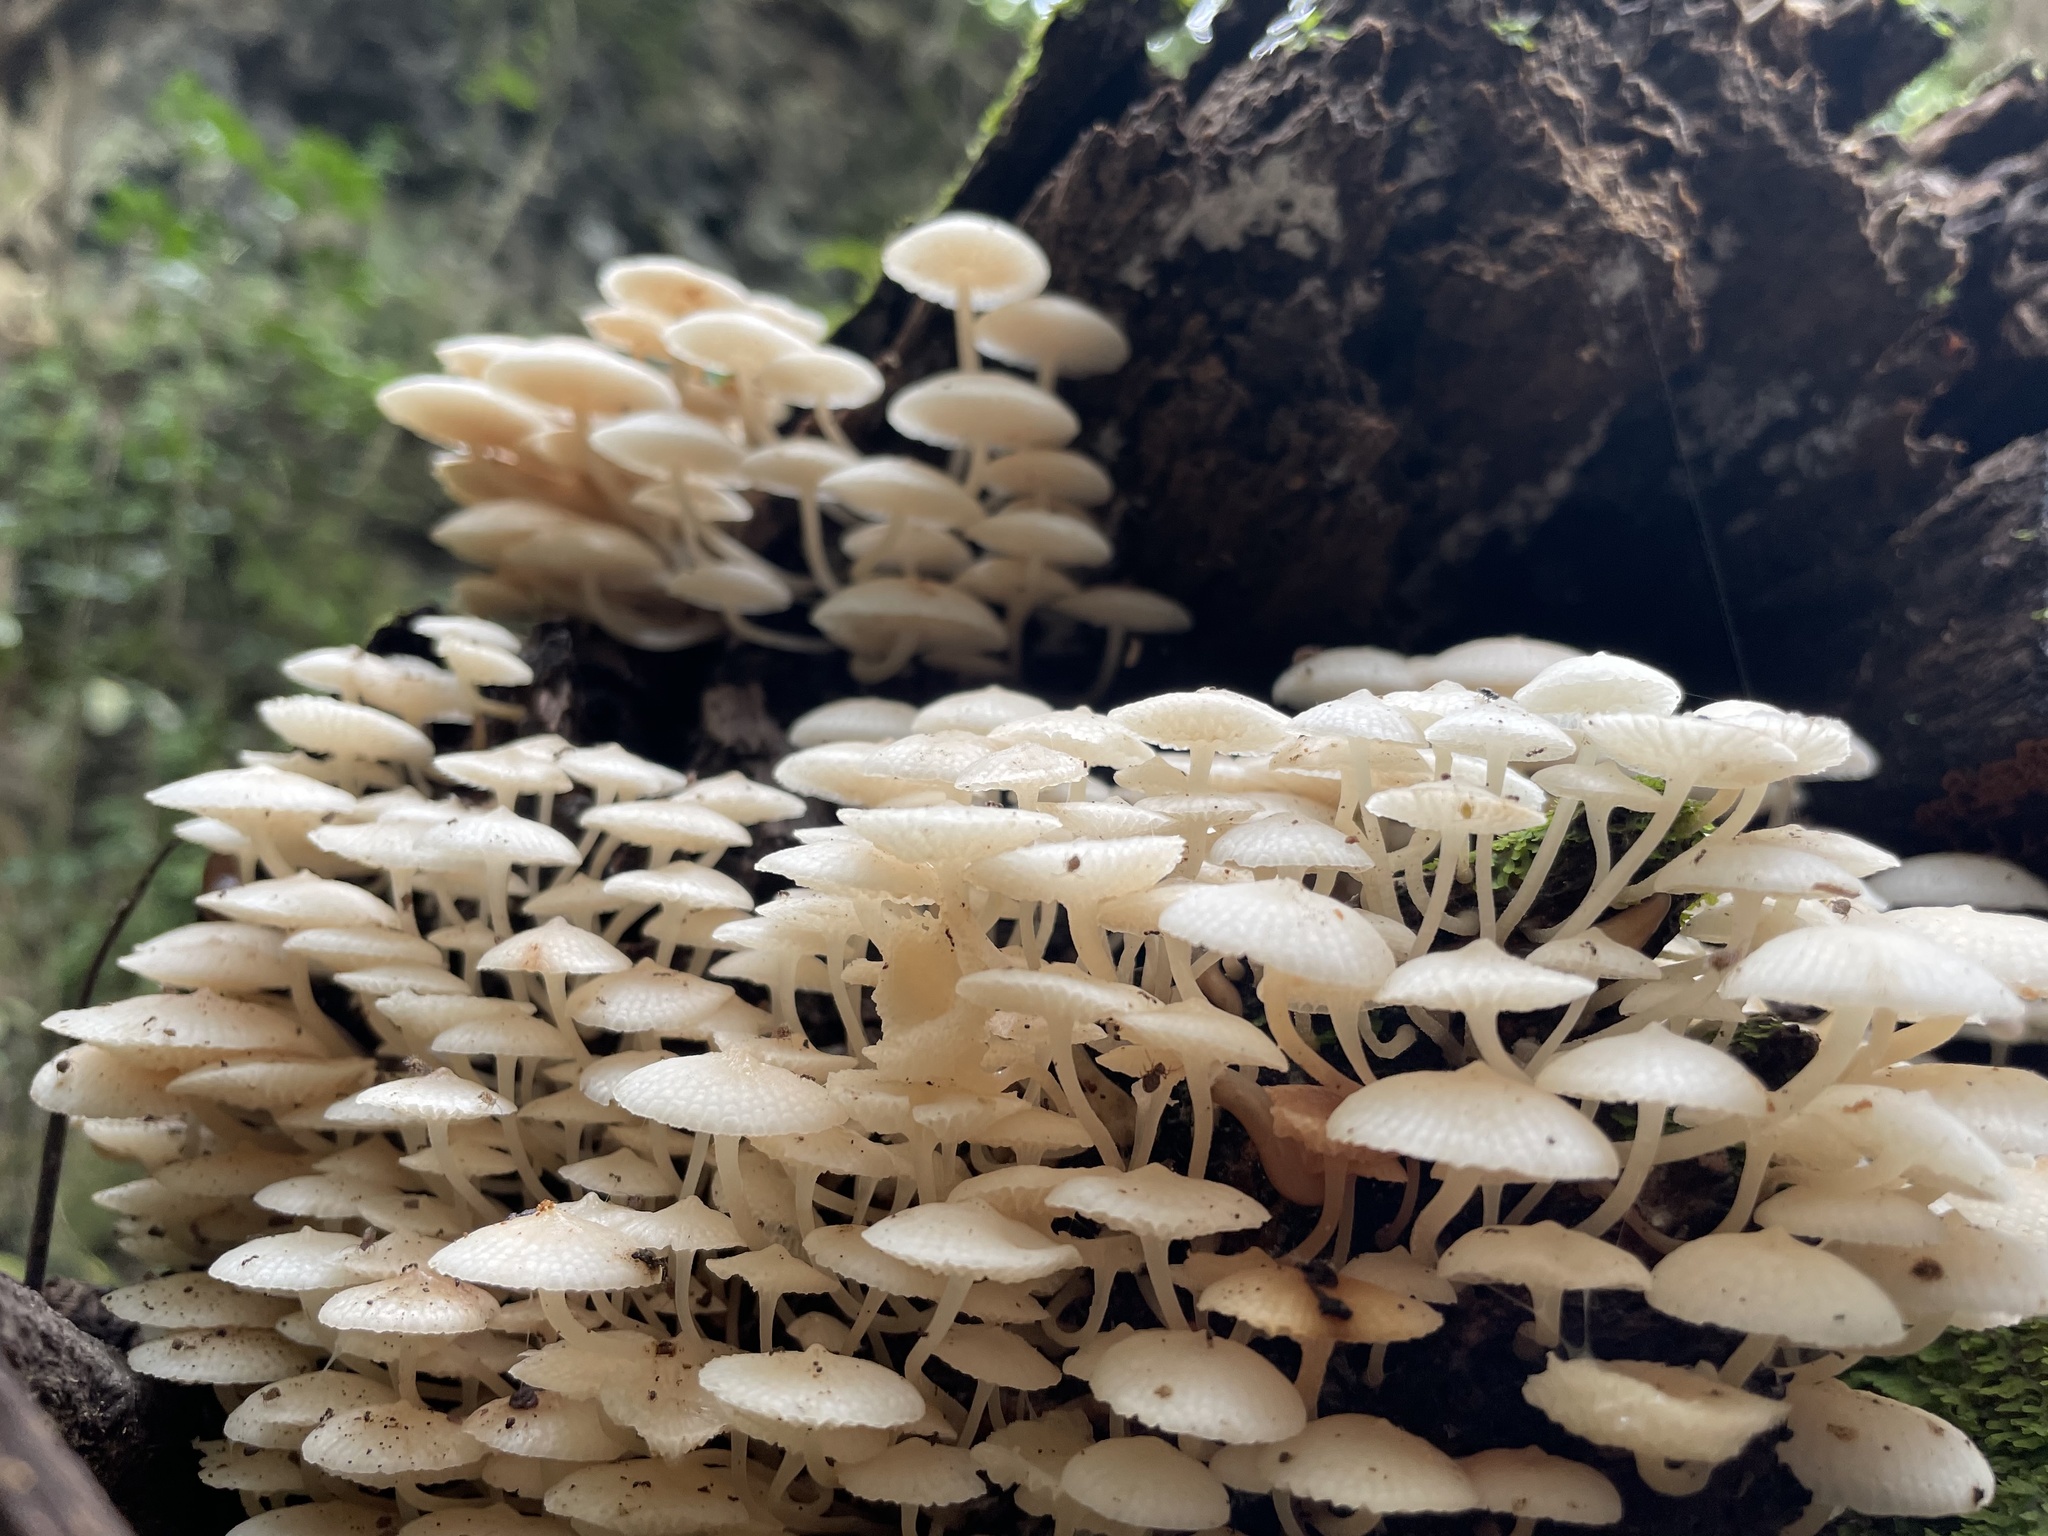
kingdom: Fungi
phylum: Basidiomycota
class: Agaricomycetes
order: Agaricales
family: Mycenaceae
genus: Filoboletus
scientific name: Filoboletus manipularis
